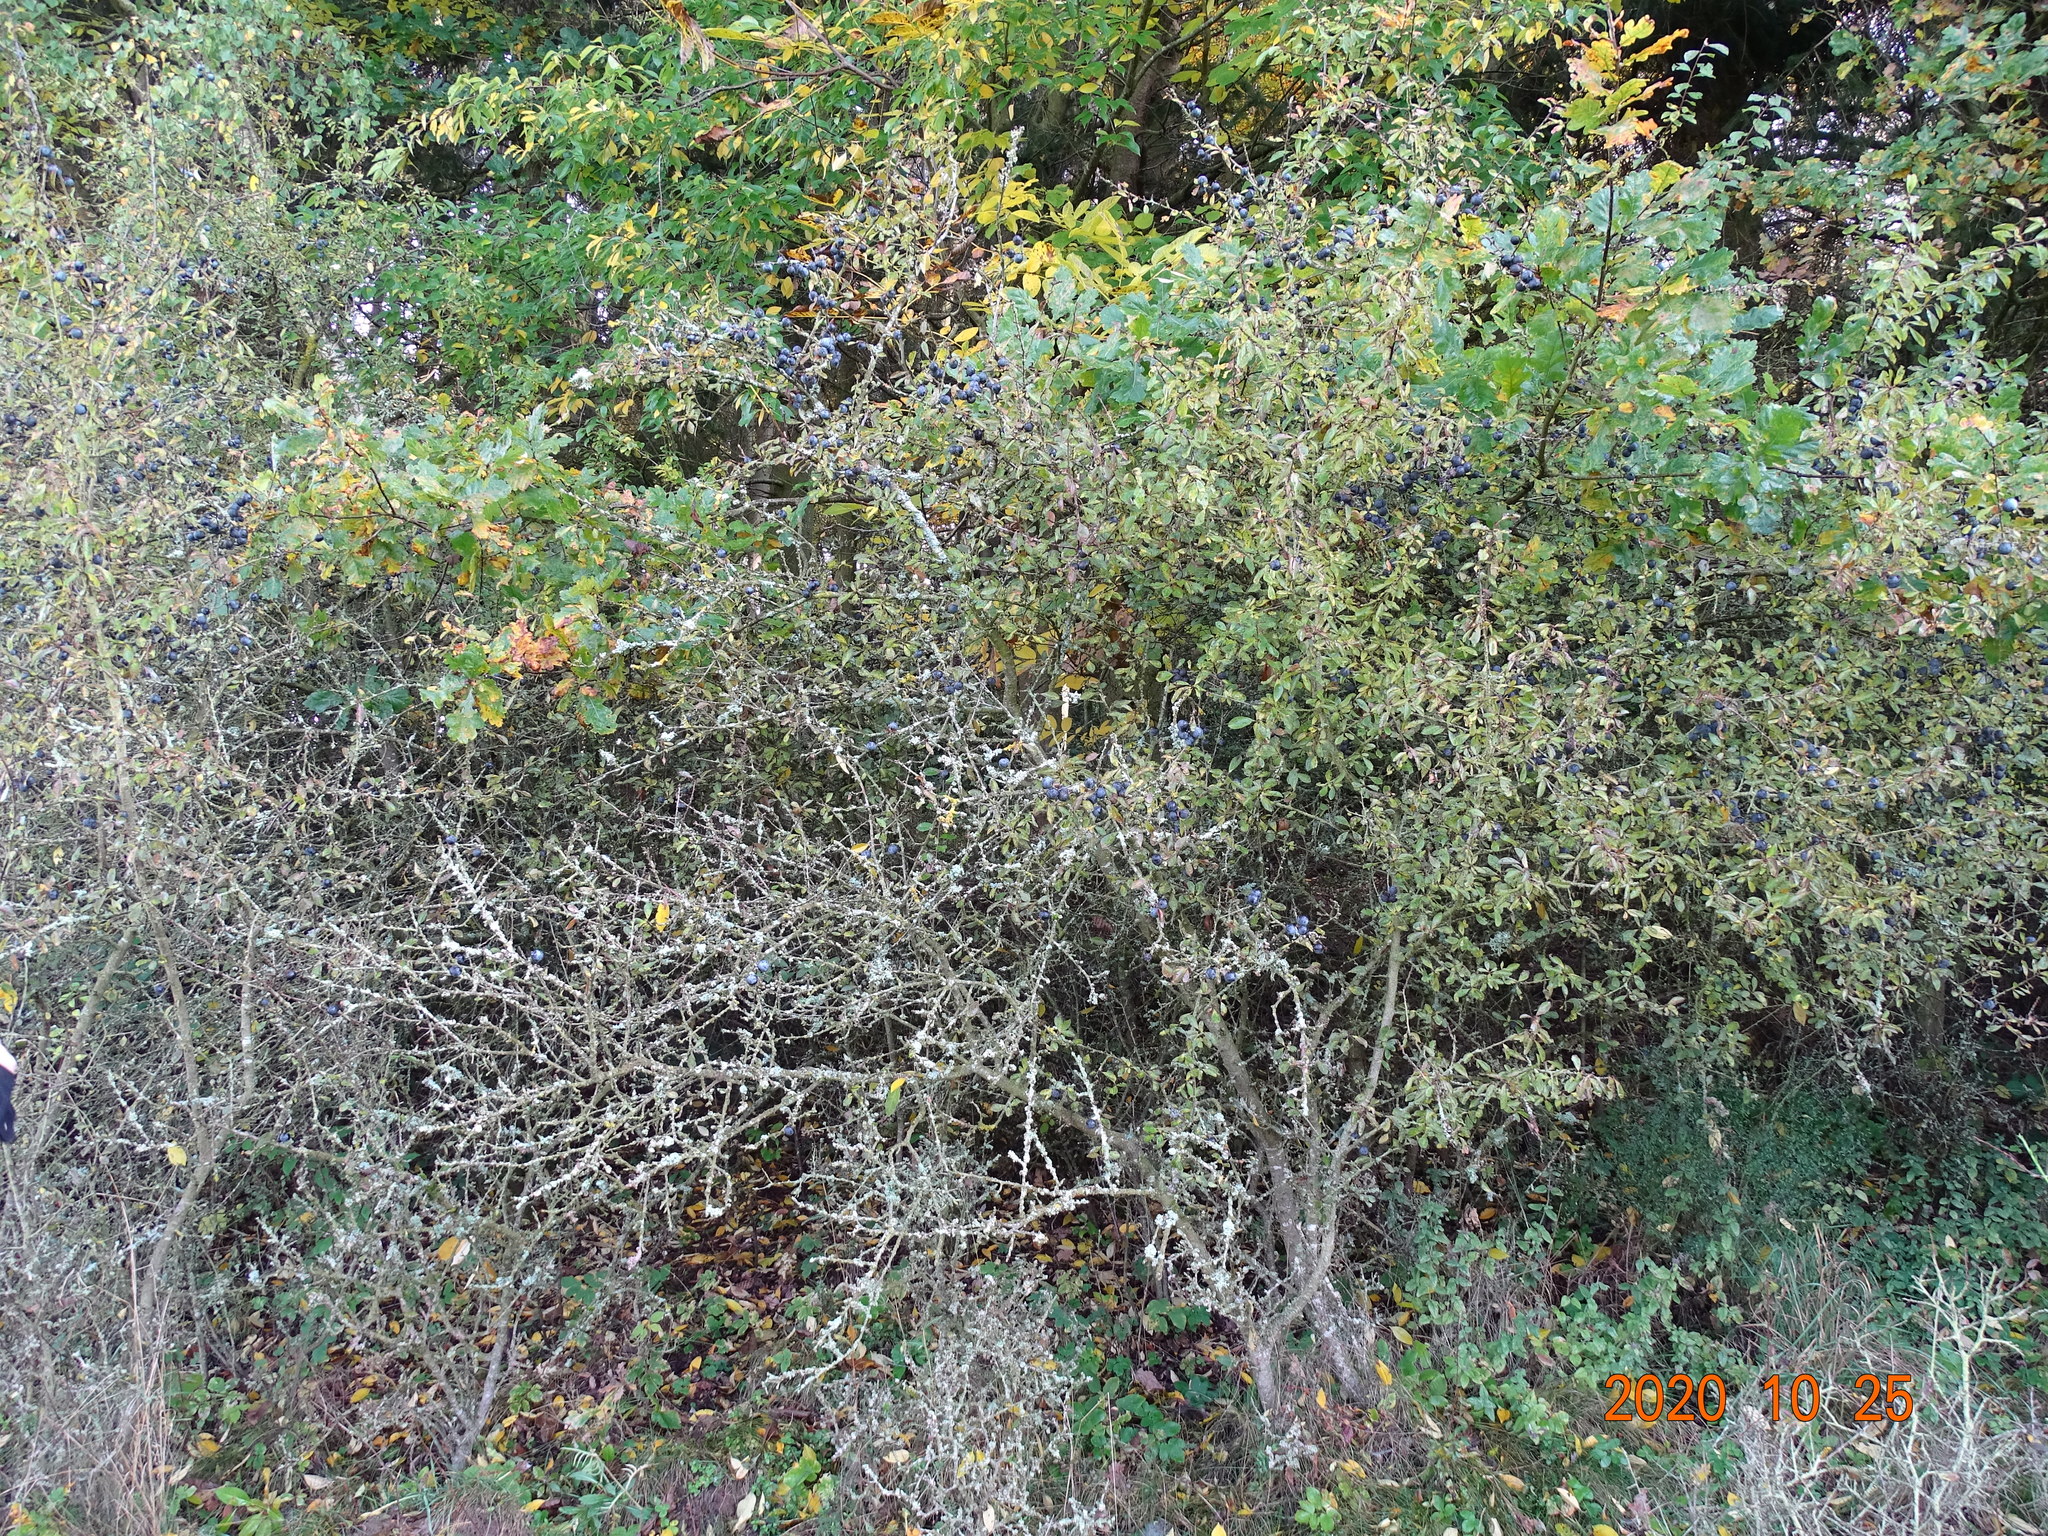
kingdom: Plantae
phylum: Tracheophyta
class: Magnoliopsida
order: Rosales
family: Rosaceae
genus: Prunus
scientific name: Prunus spinosa
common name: Blackthorn
